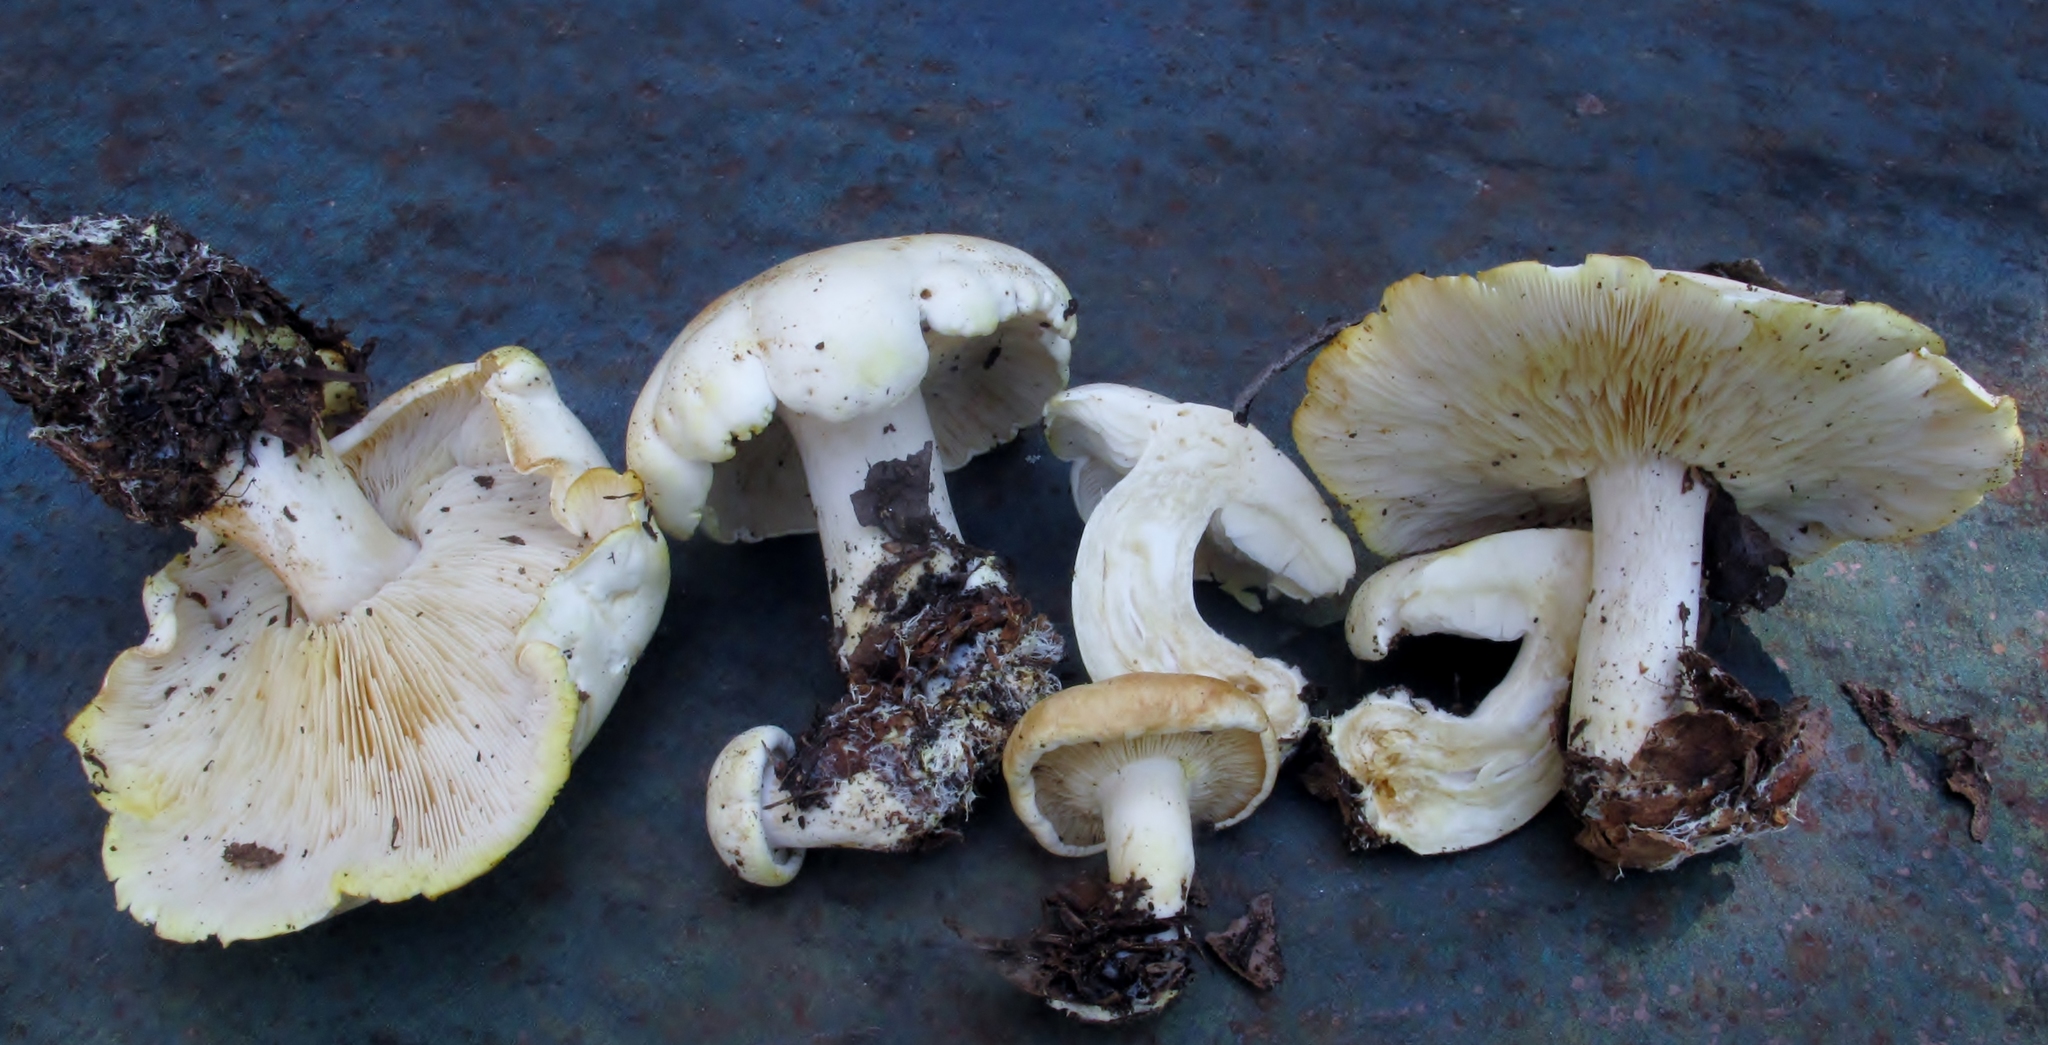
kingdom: Fungi
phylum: Basidiomycota
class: Agaricomycetes
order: Agaricales
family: Tricholomataceae
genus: Tricholoma
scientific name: Tricholoma sulphurescens
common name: Yellow staining knight
